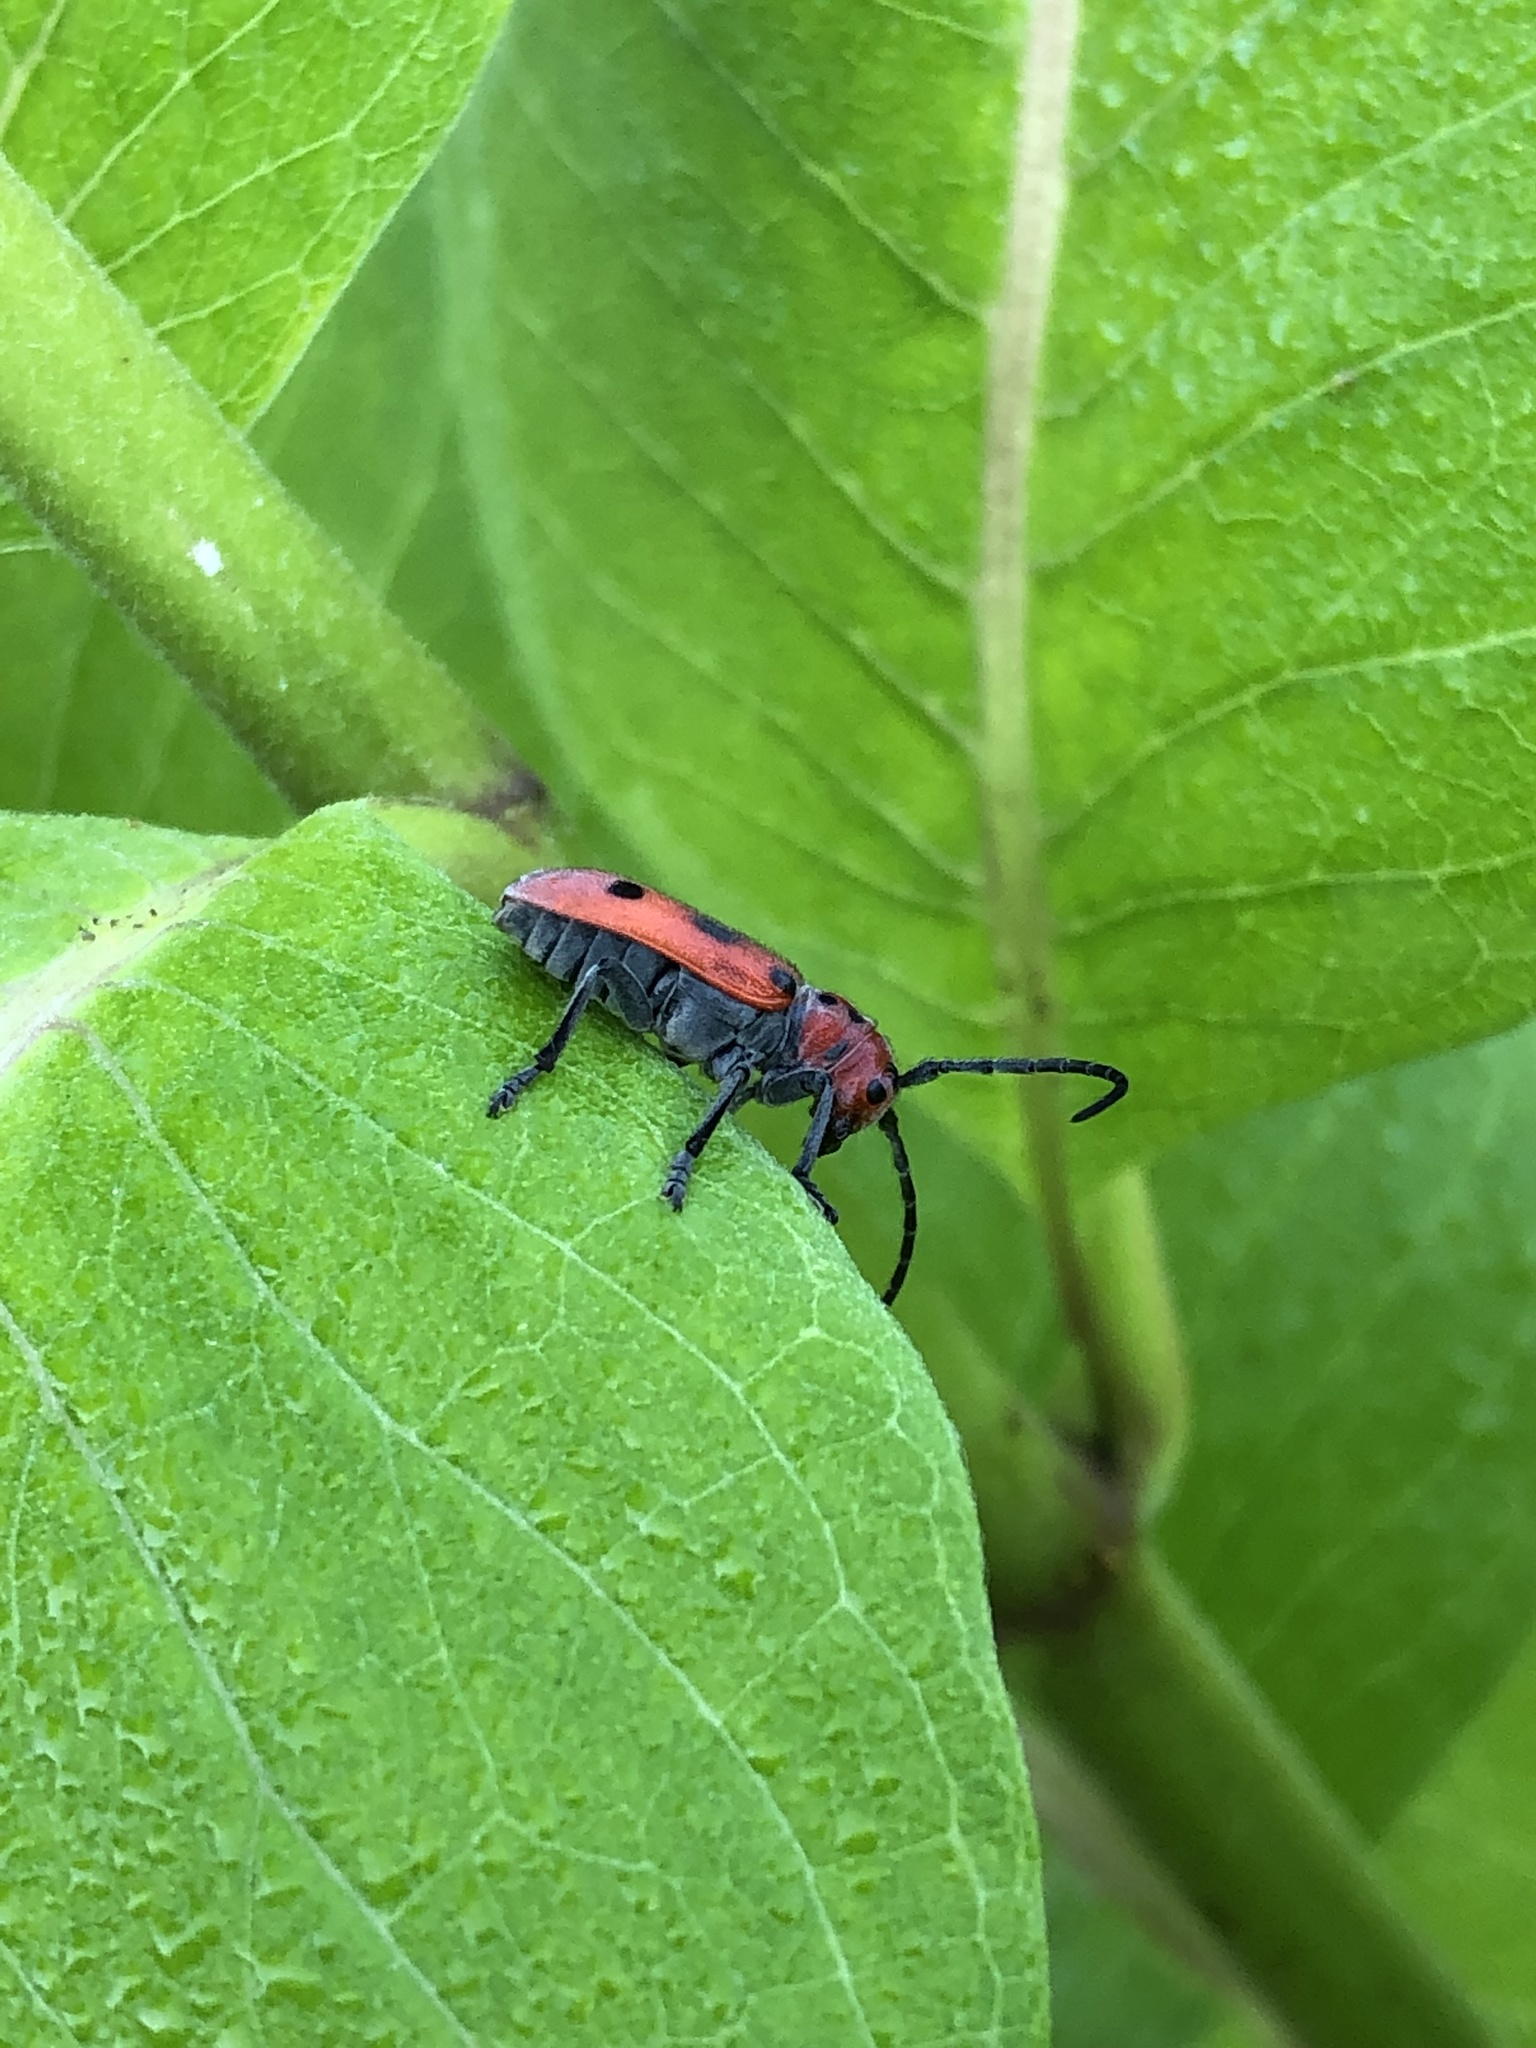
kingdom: Animalia
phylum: Arthropoda
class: Insecta
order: Coleoptera
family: Cerambycidae
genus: Tetraopes
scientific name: Tetraopes tetrophthalmus
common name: Red milkweed beetle
